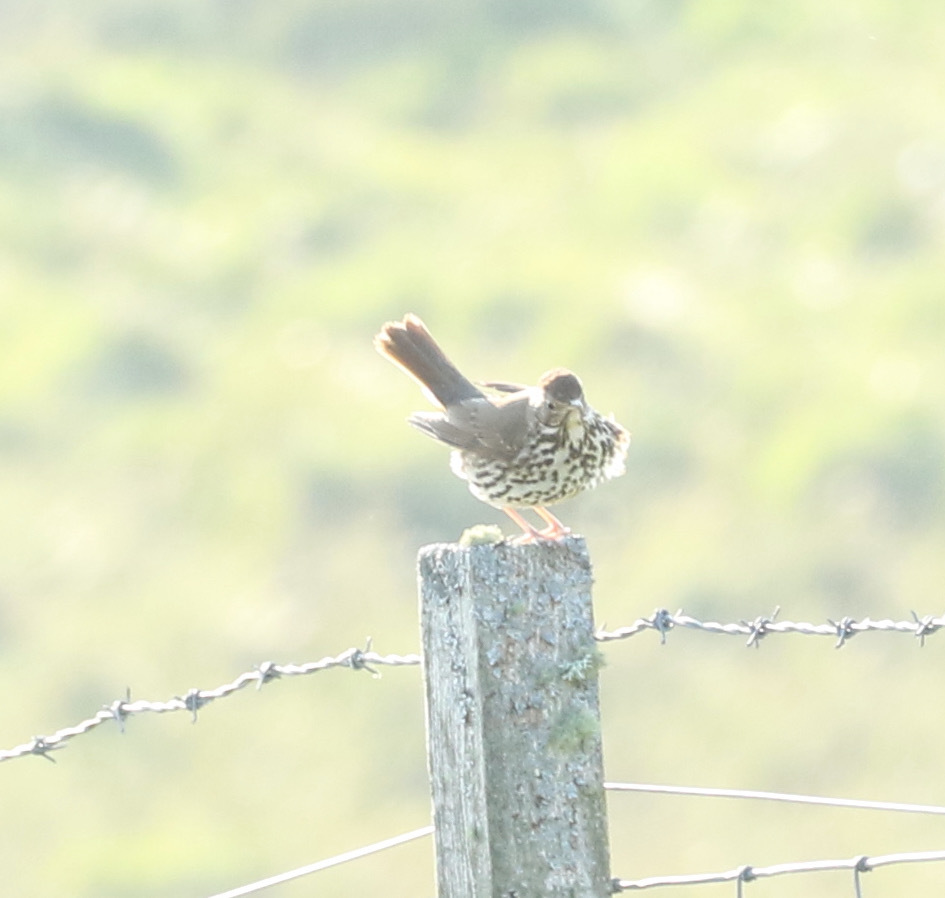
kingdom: Animalia
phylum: Chordata
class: Aves
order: Passeriformes
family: Turdidae
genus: Turdus
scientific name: Turdus philomelos
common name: Song thrush
